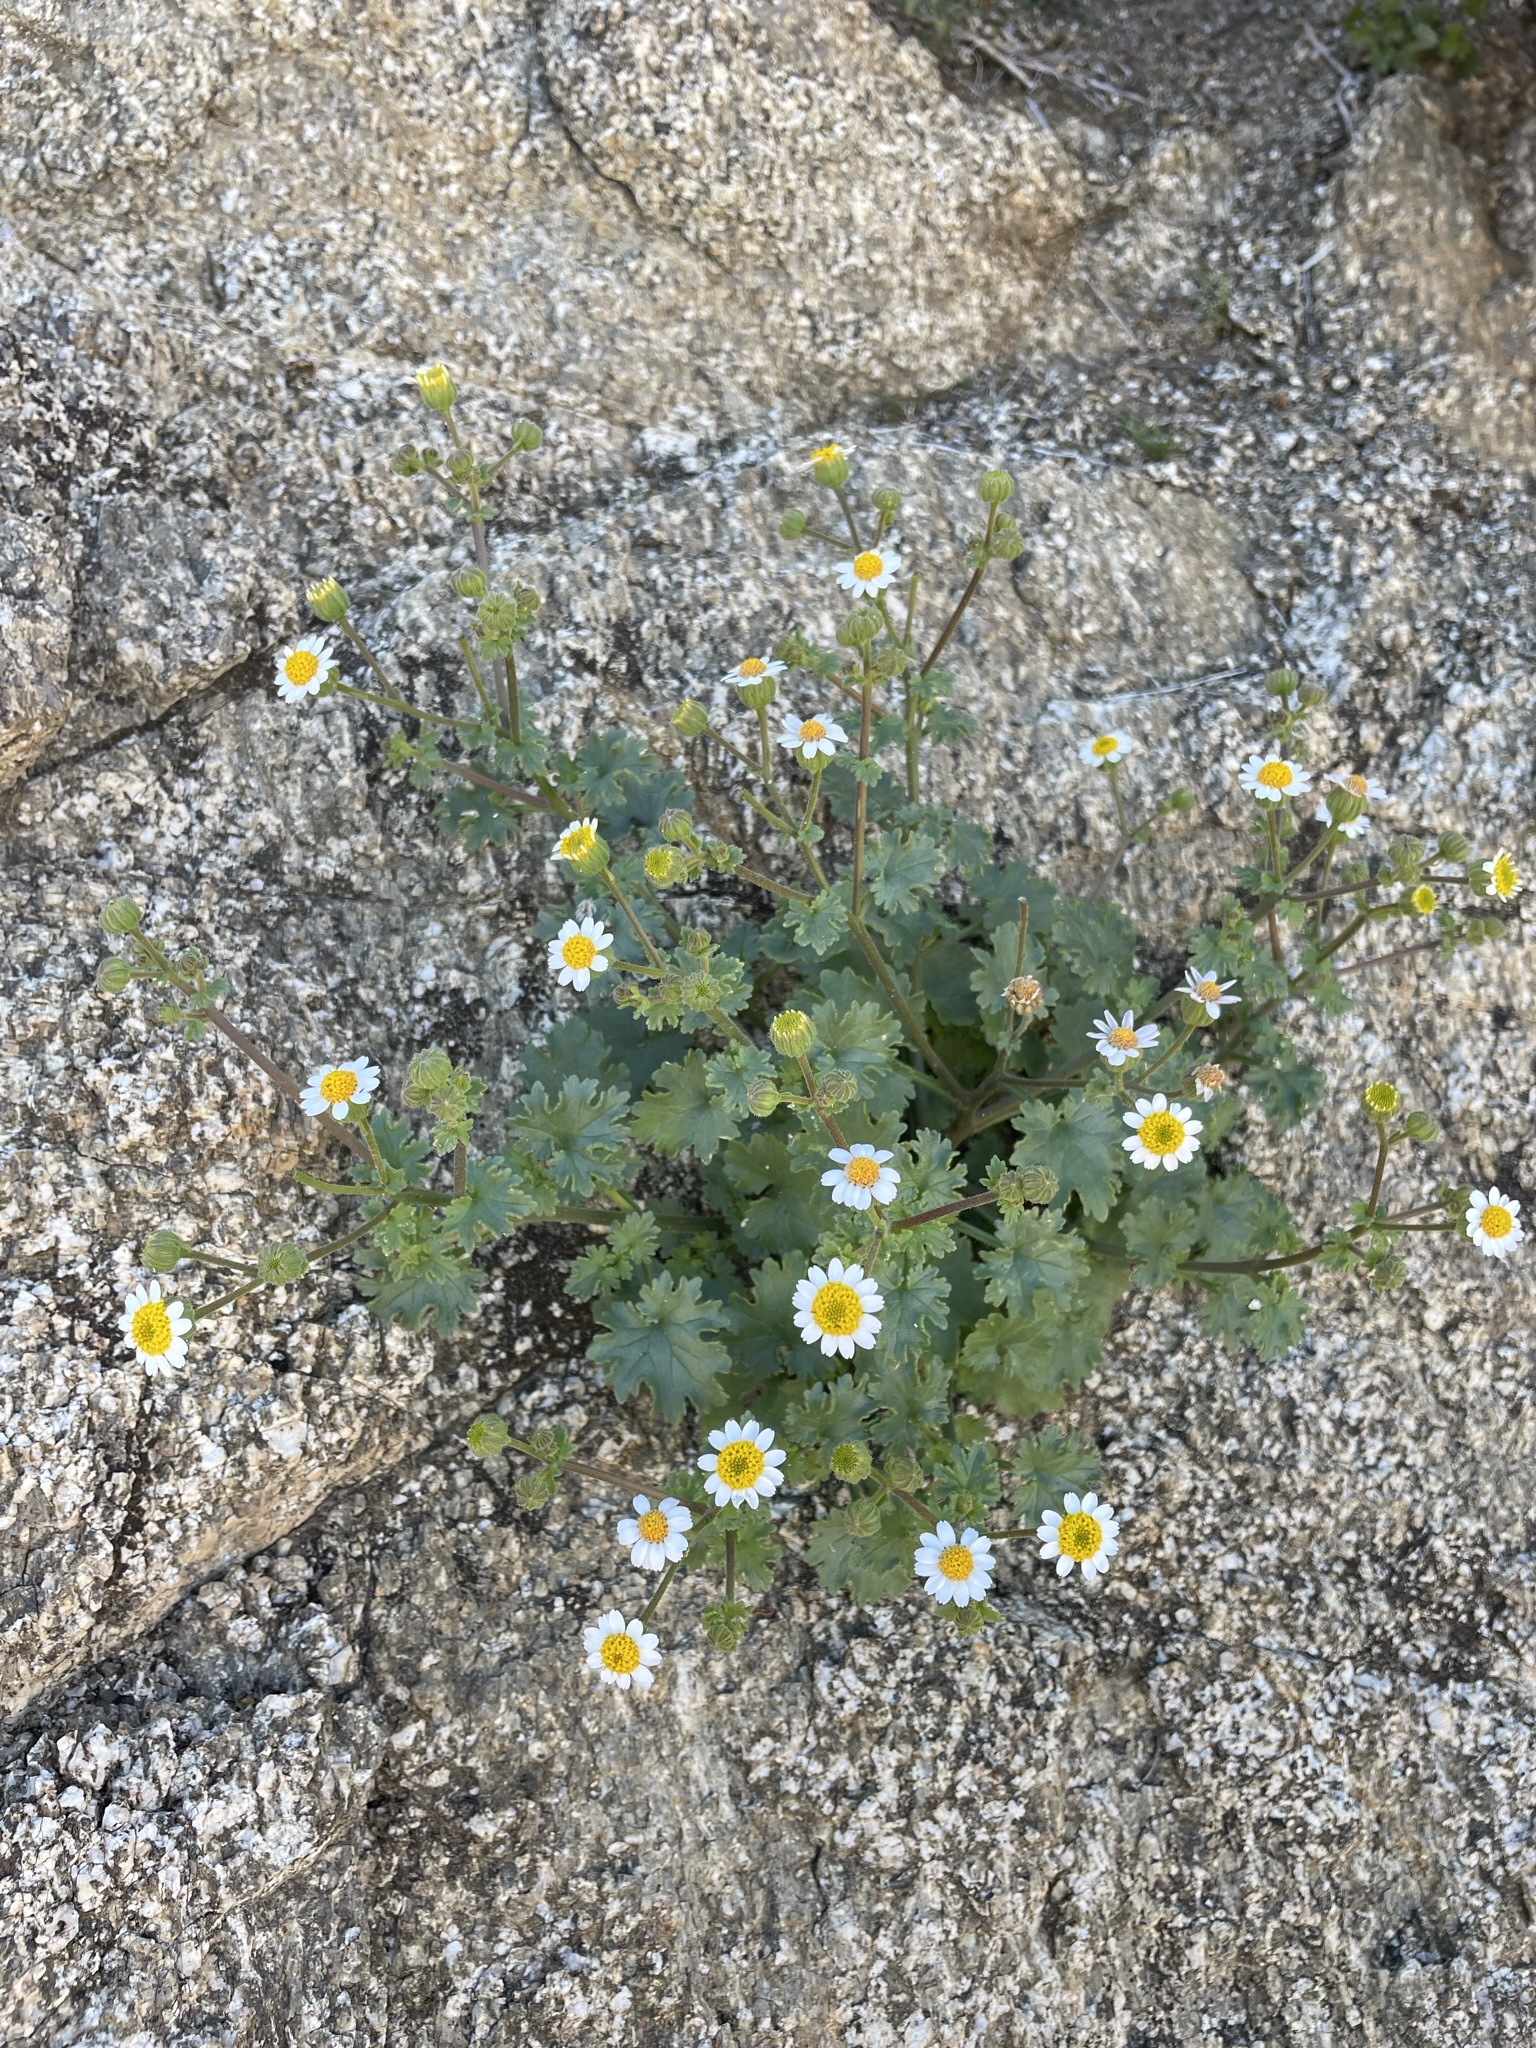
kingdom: Plantae
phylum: Tracheophyta
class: Magnoliopsida
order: Asterales
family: Asteraceae
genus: Laphamia
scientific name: Laphamia emoryi
